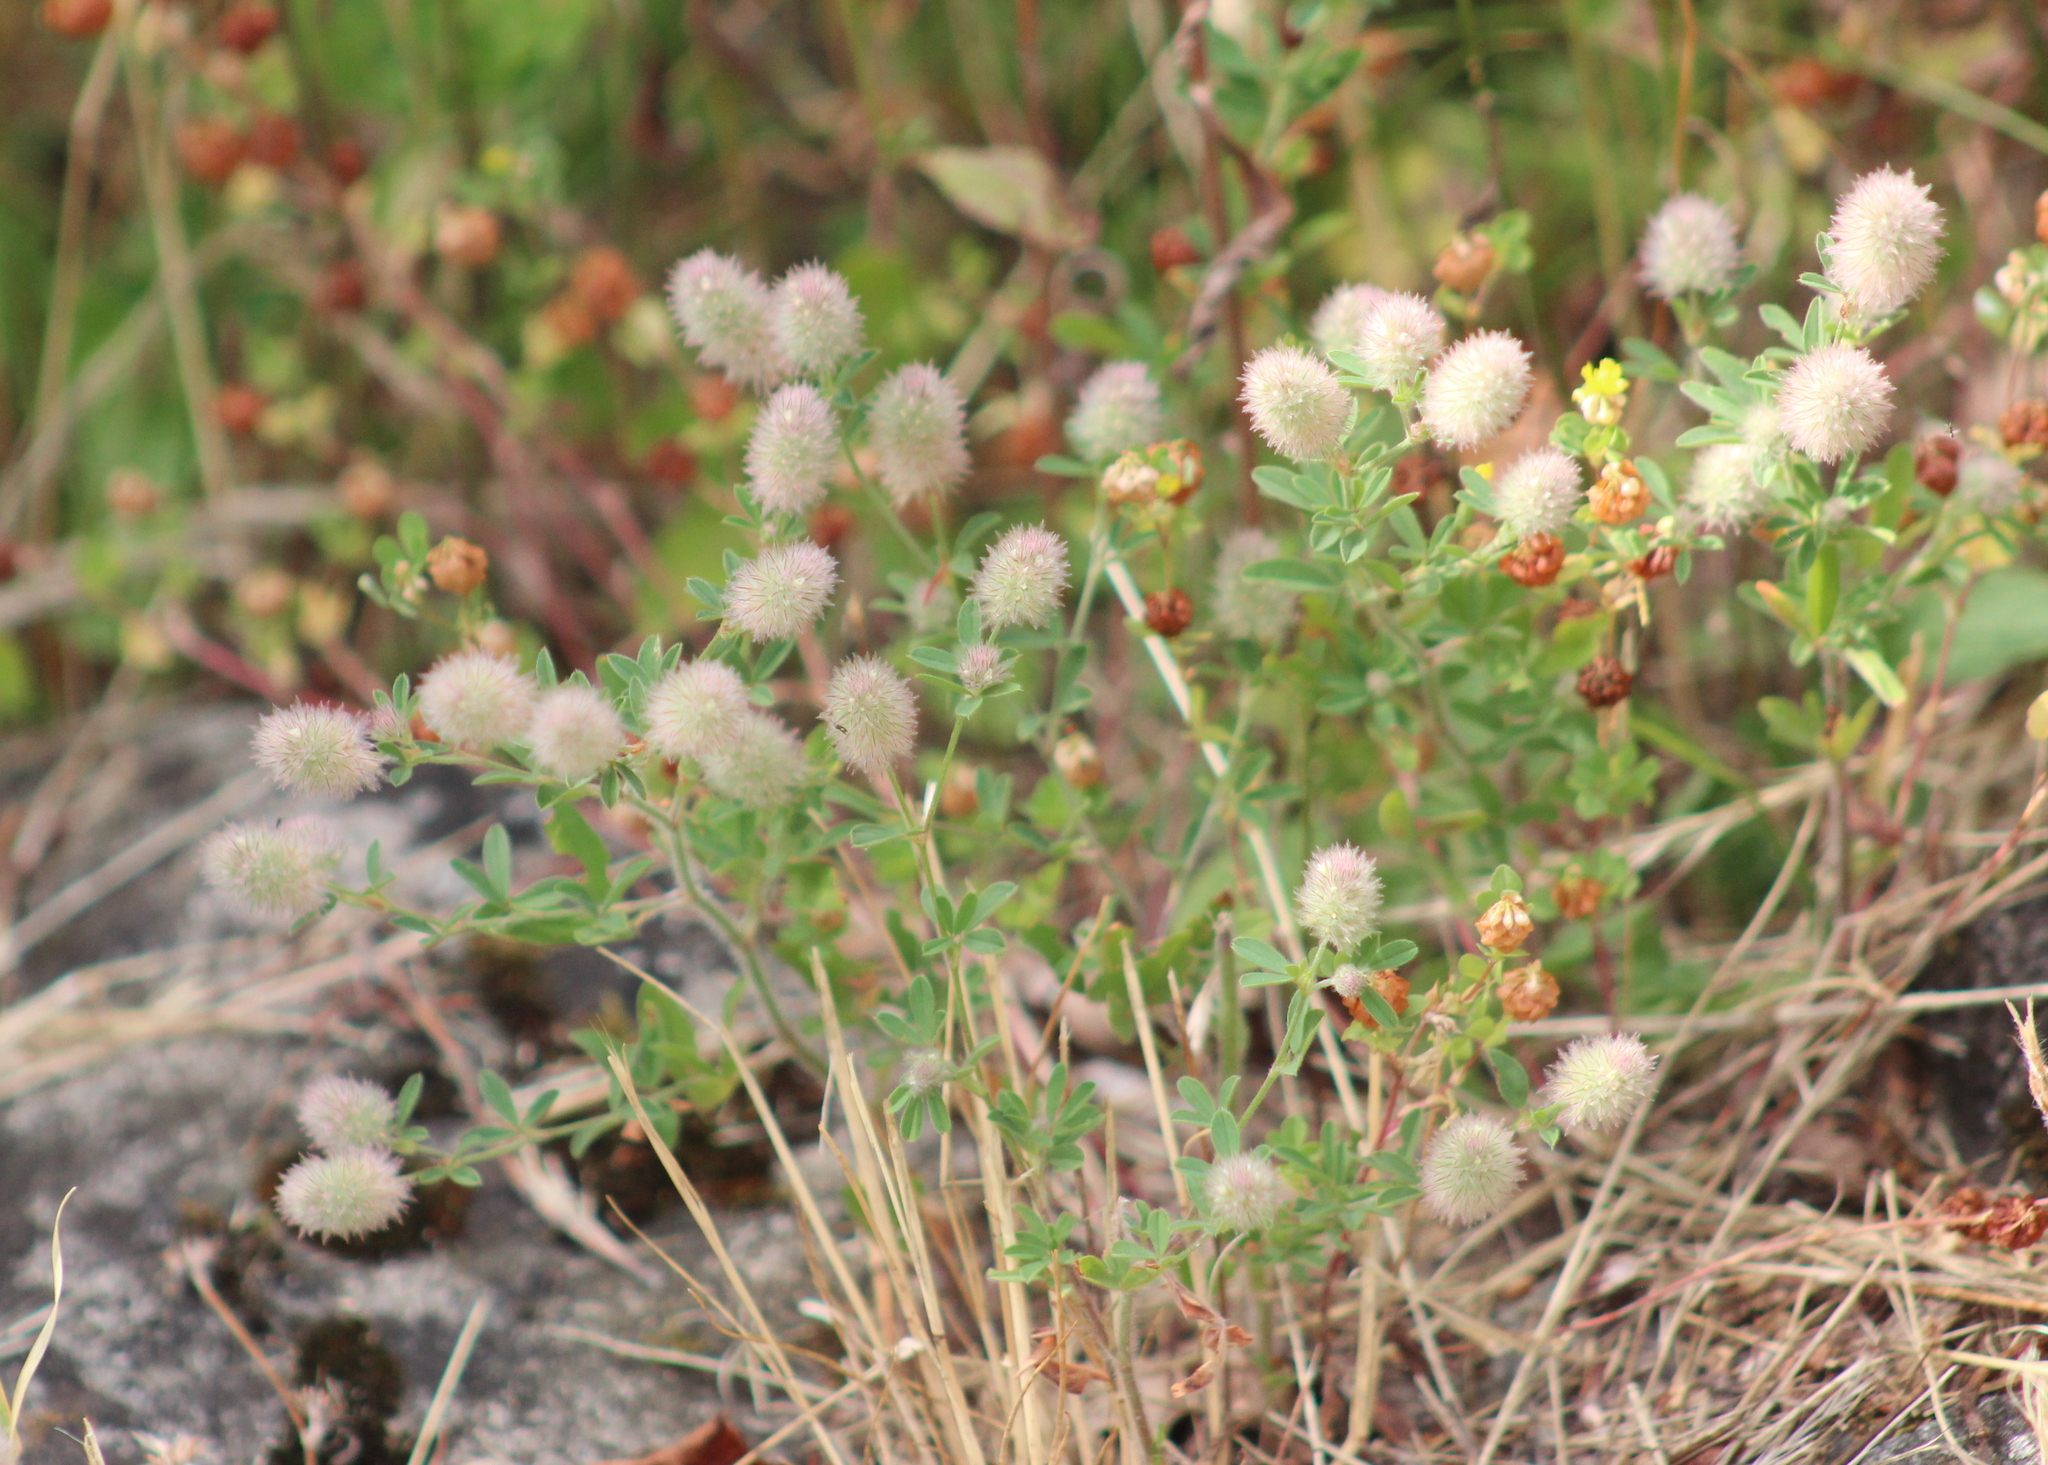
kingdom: Plantae
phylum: Tracheophyta
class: Magnoliopsida
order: Fabales
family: Fabaceae
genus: Trifolium
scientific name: Trifolium arvense
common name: Hare's-foot clover
